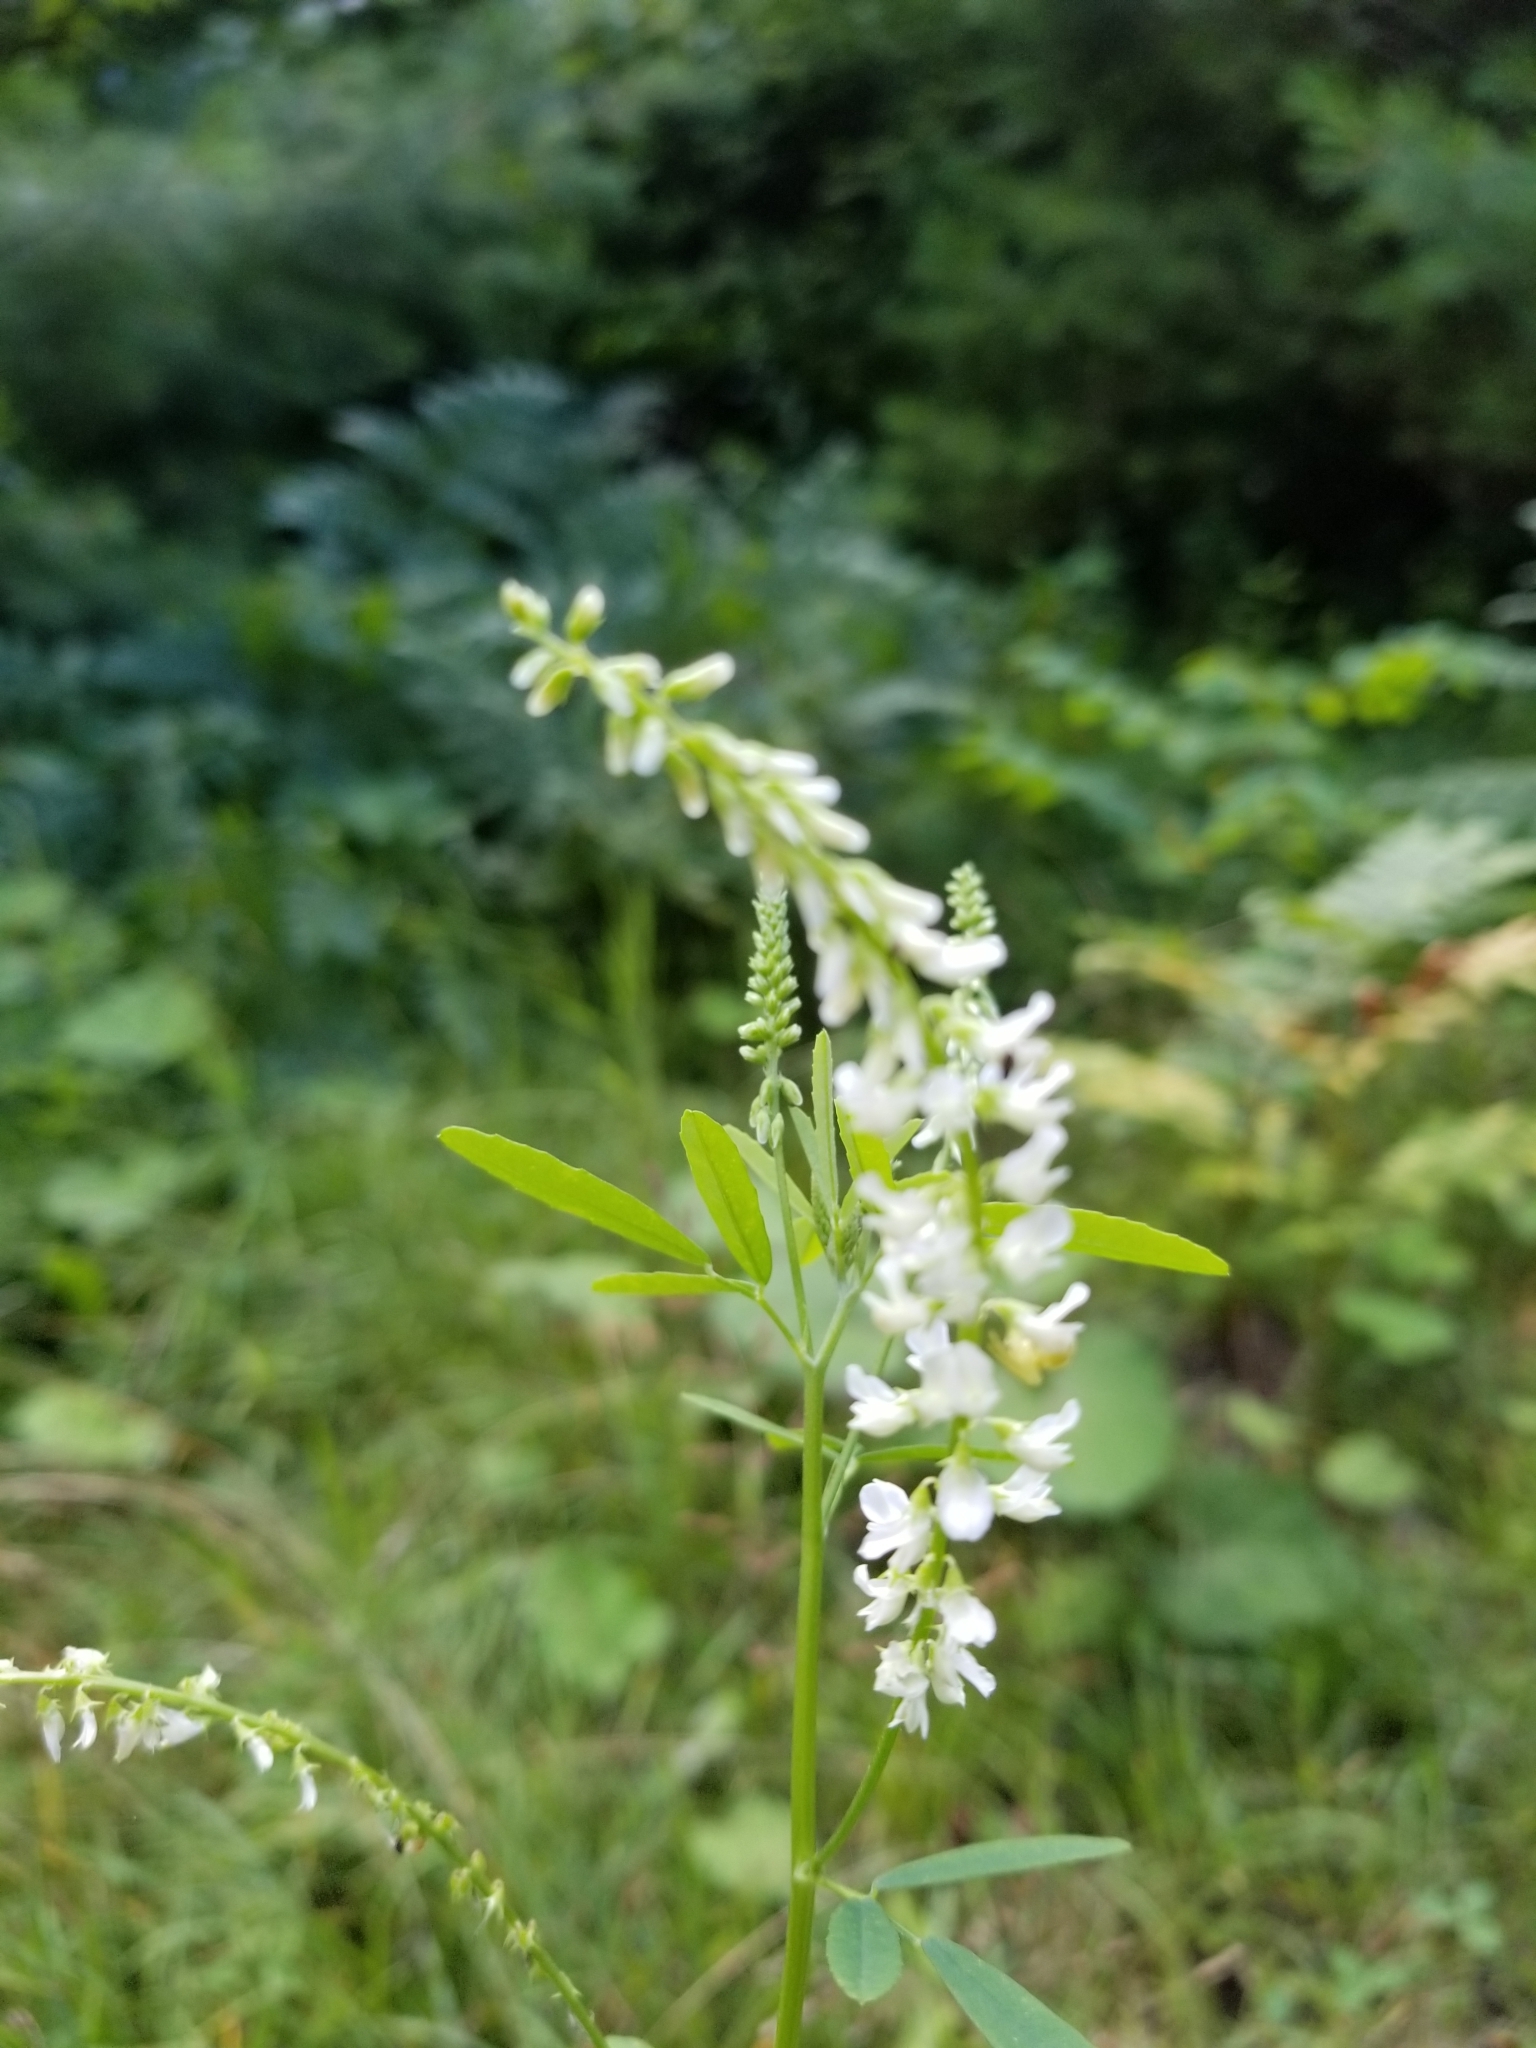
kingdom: Plantae
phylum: Tracheophyta
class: Magnoliopsida
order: Fabales
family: Fabaceae
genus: Melilotus
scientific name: Melilotus albus
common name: White melilot
